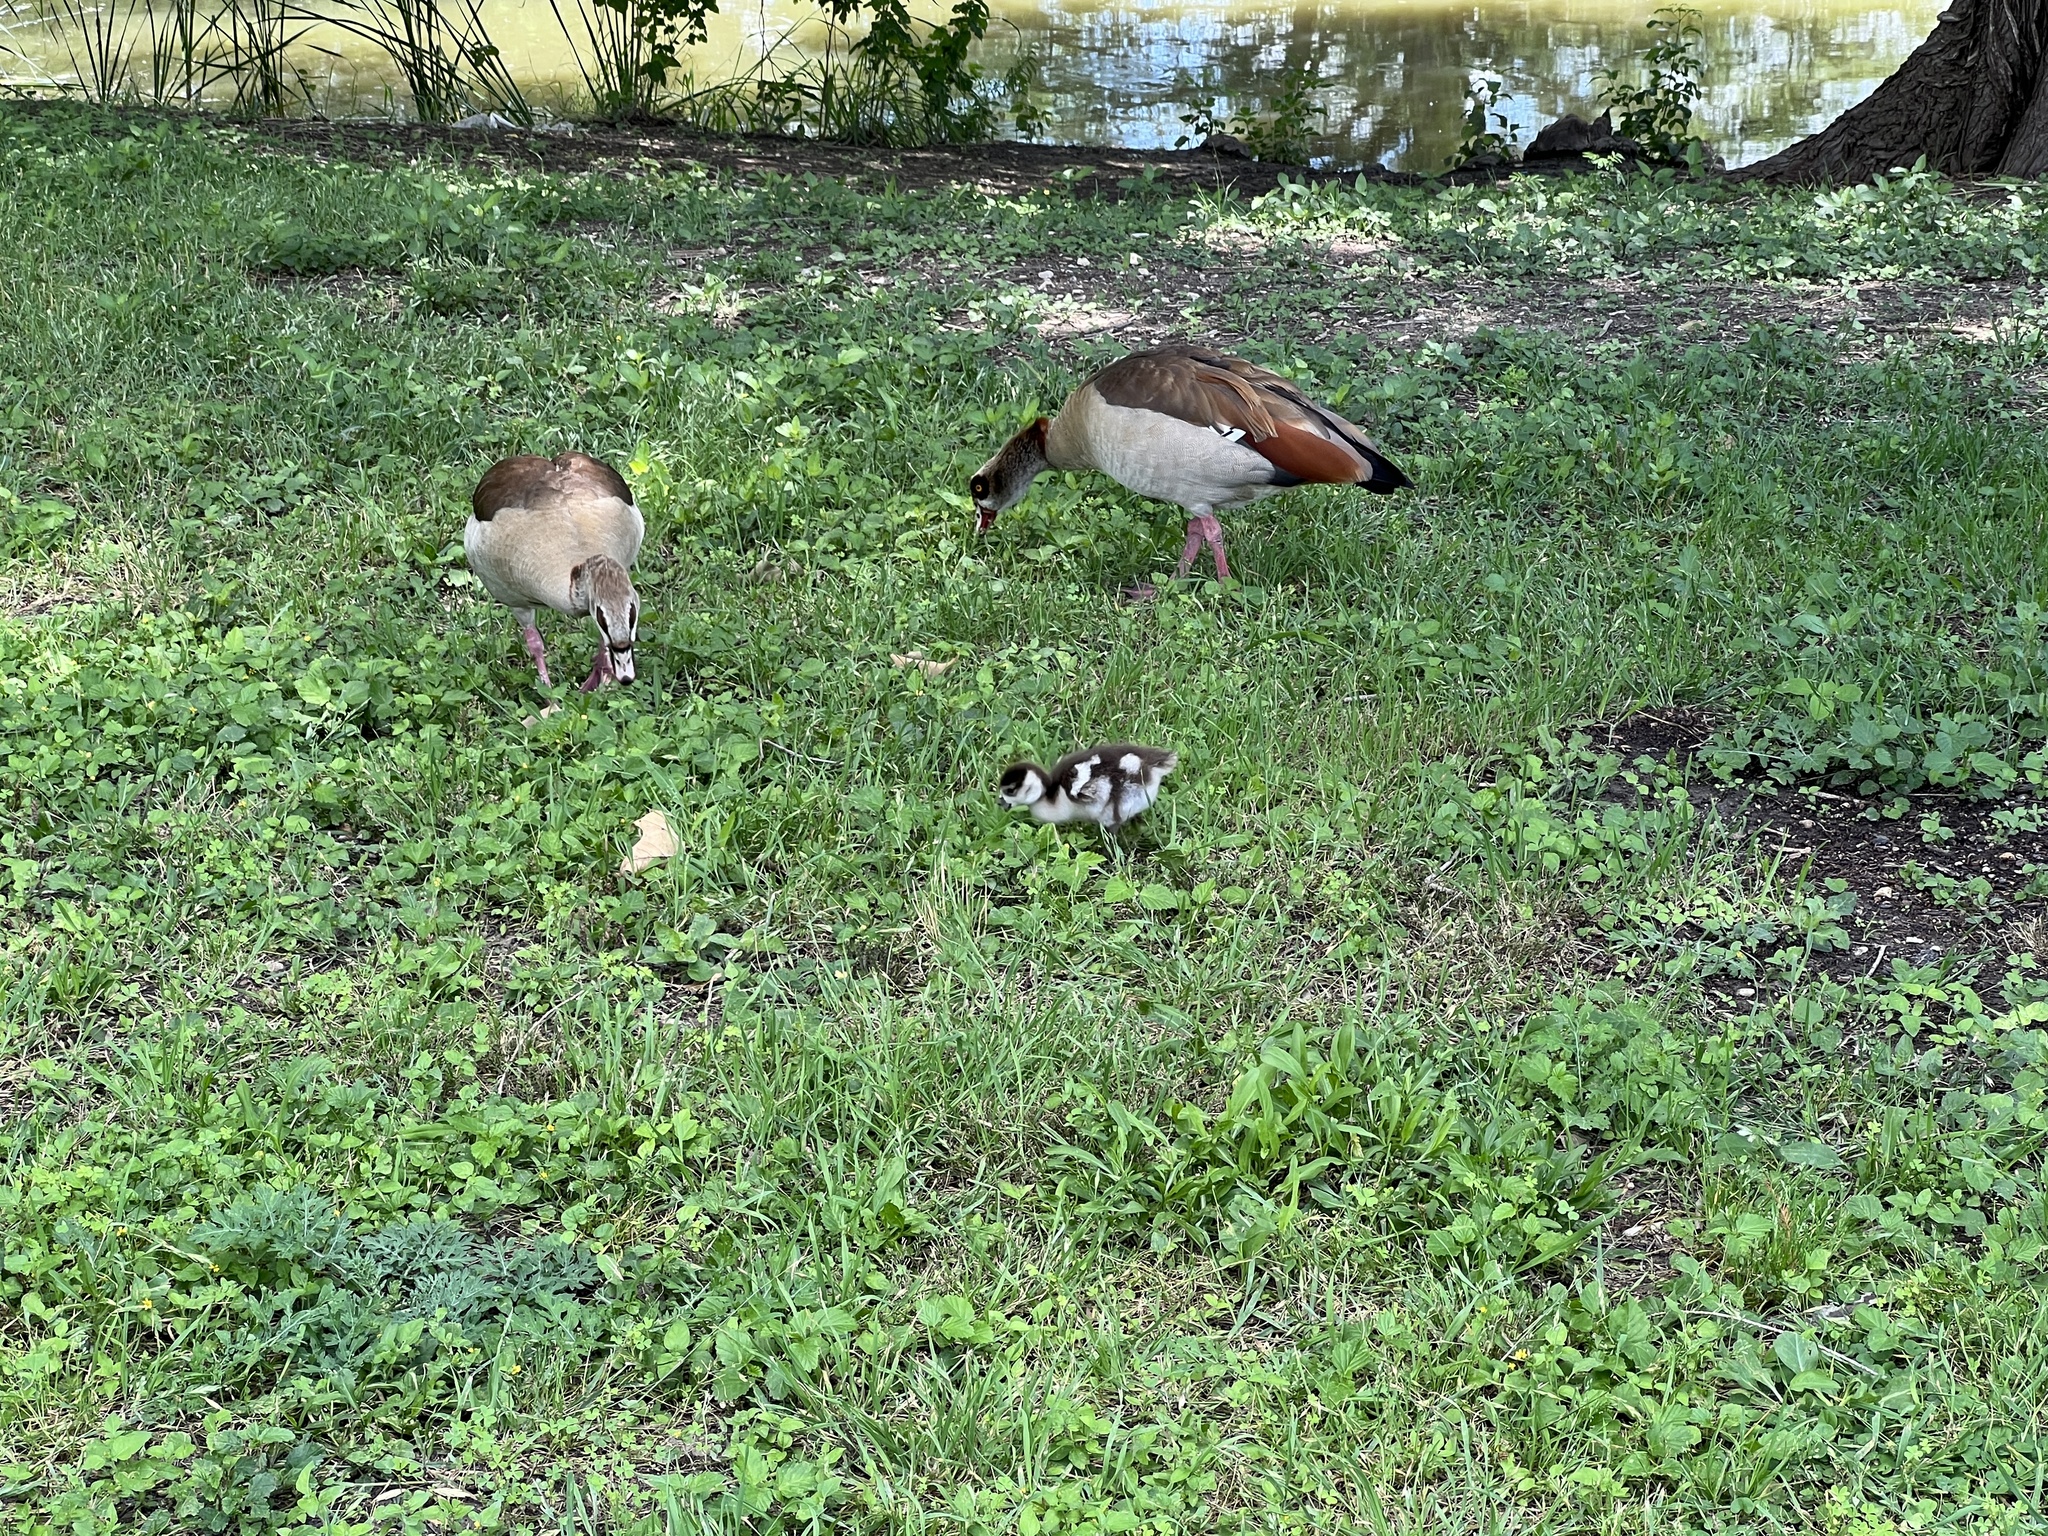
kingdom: Animalia
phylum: Chordata
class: Aves
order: Anseriformes
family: Anatidae
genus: Alopochen
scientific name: Alopochen aegyptiaca
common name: Egyptian goose
